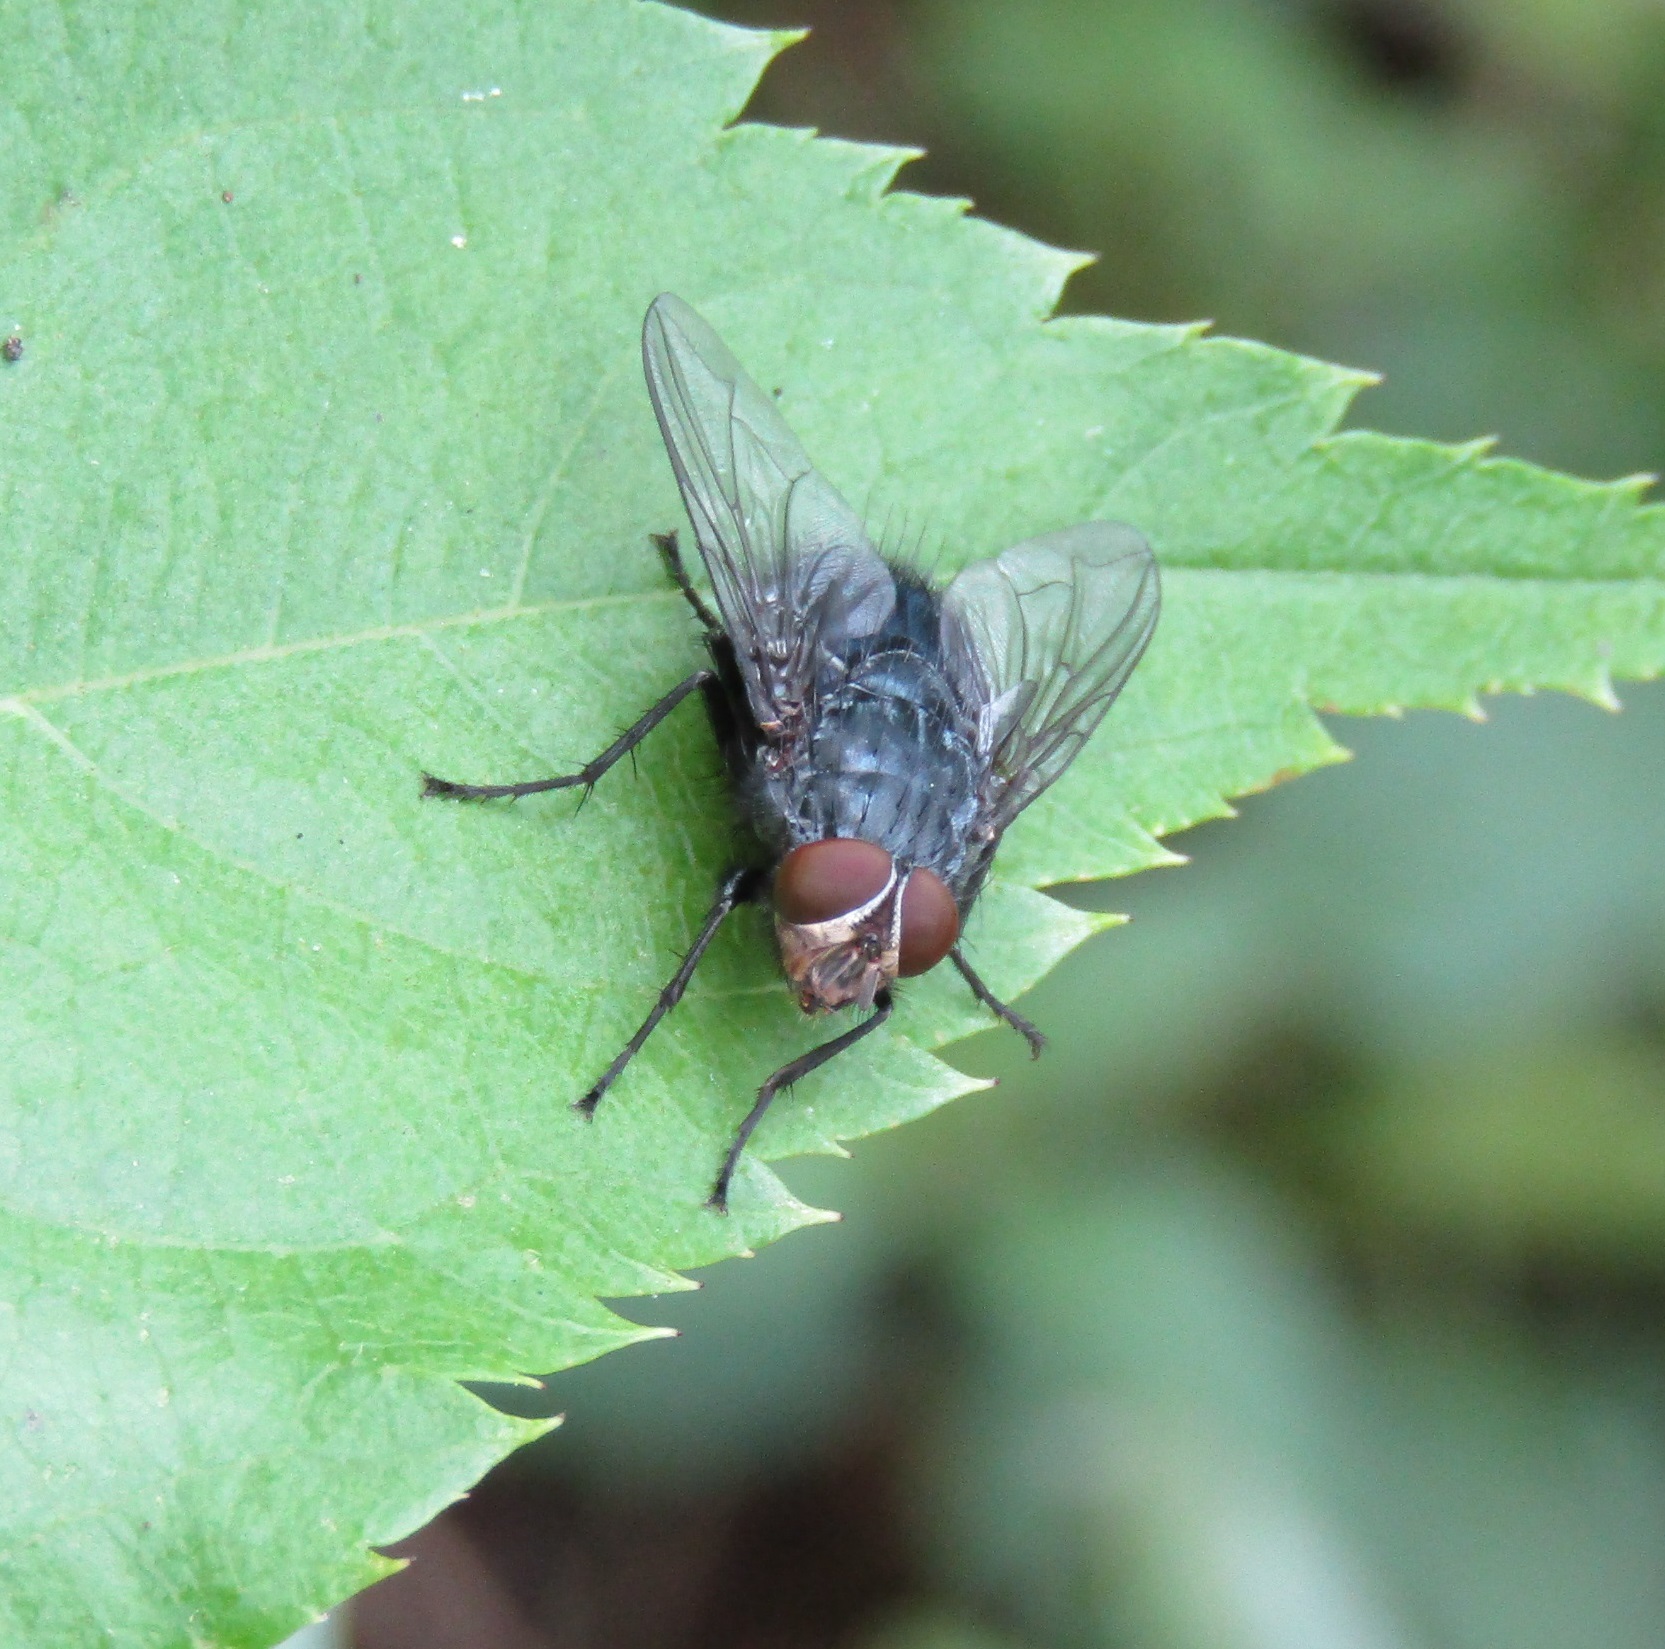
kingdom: Animalia
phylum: Arthropoda
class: Insecta
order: Diptera
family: Calliphoridae
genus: Calliphora
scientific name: Calliphora vicina
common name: Common blow flie
